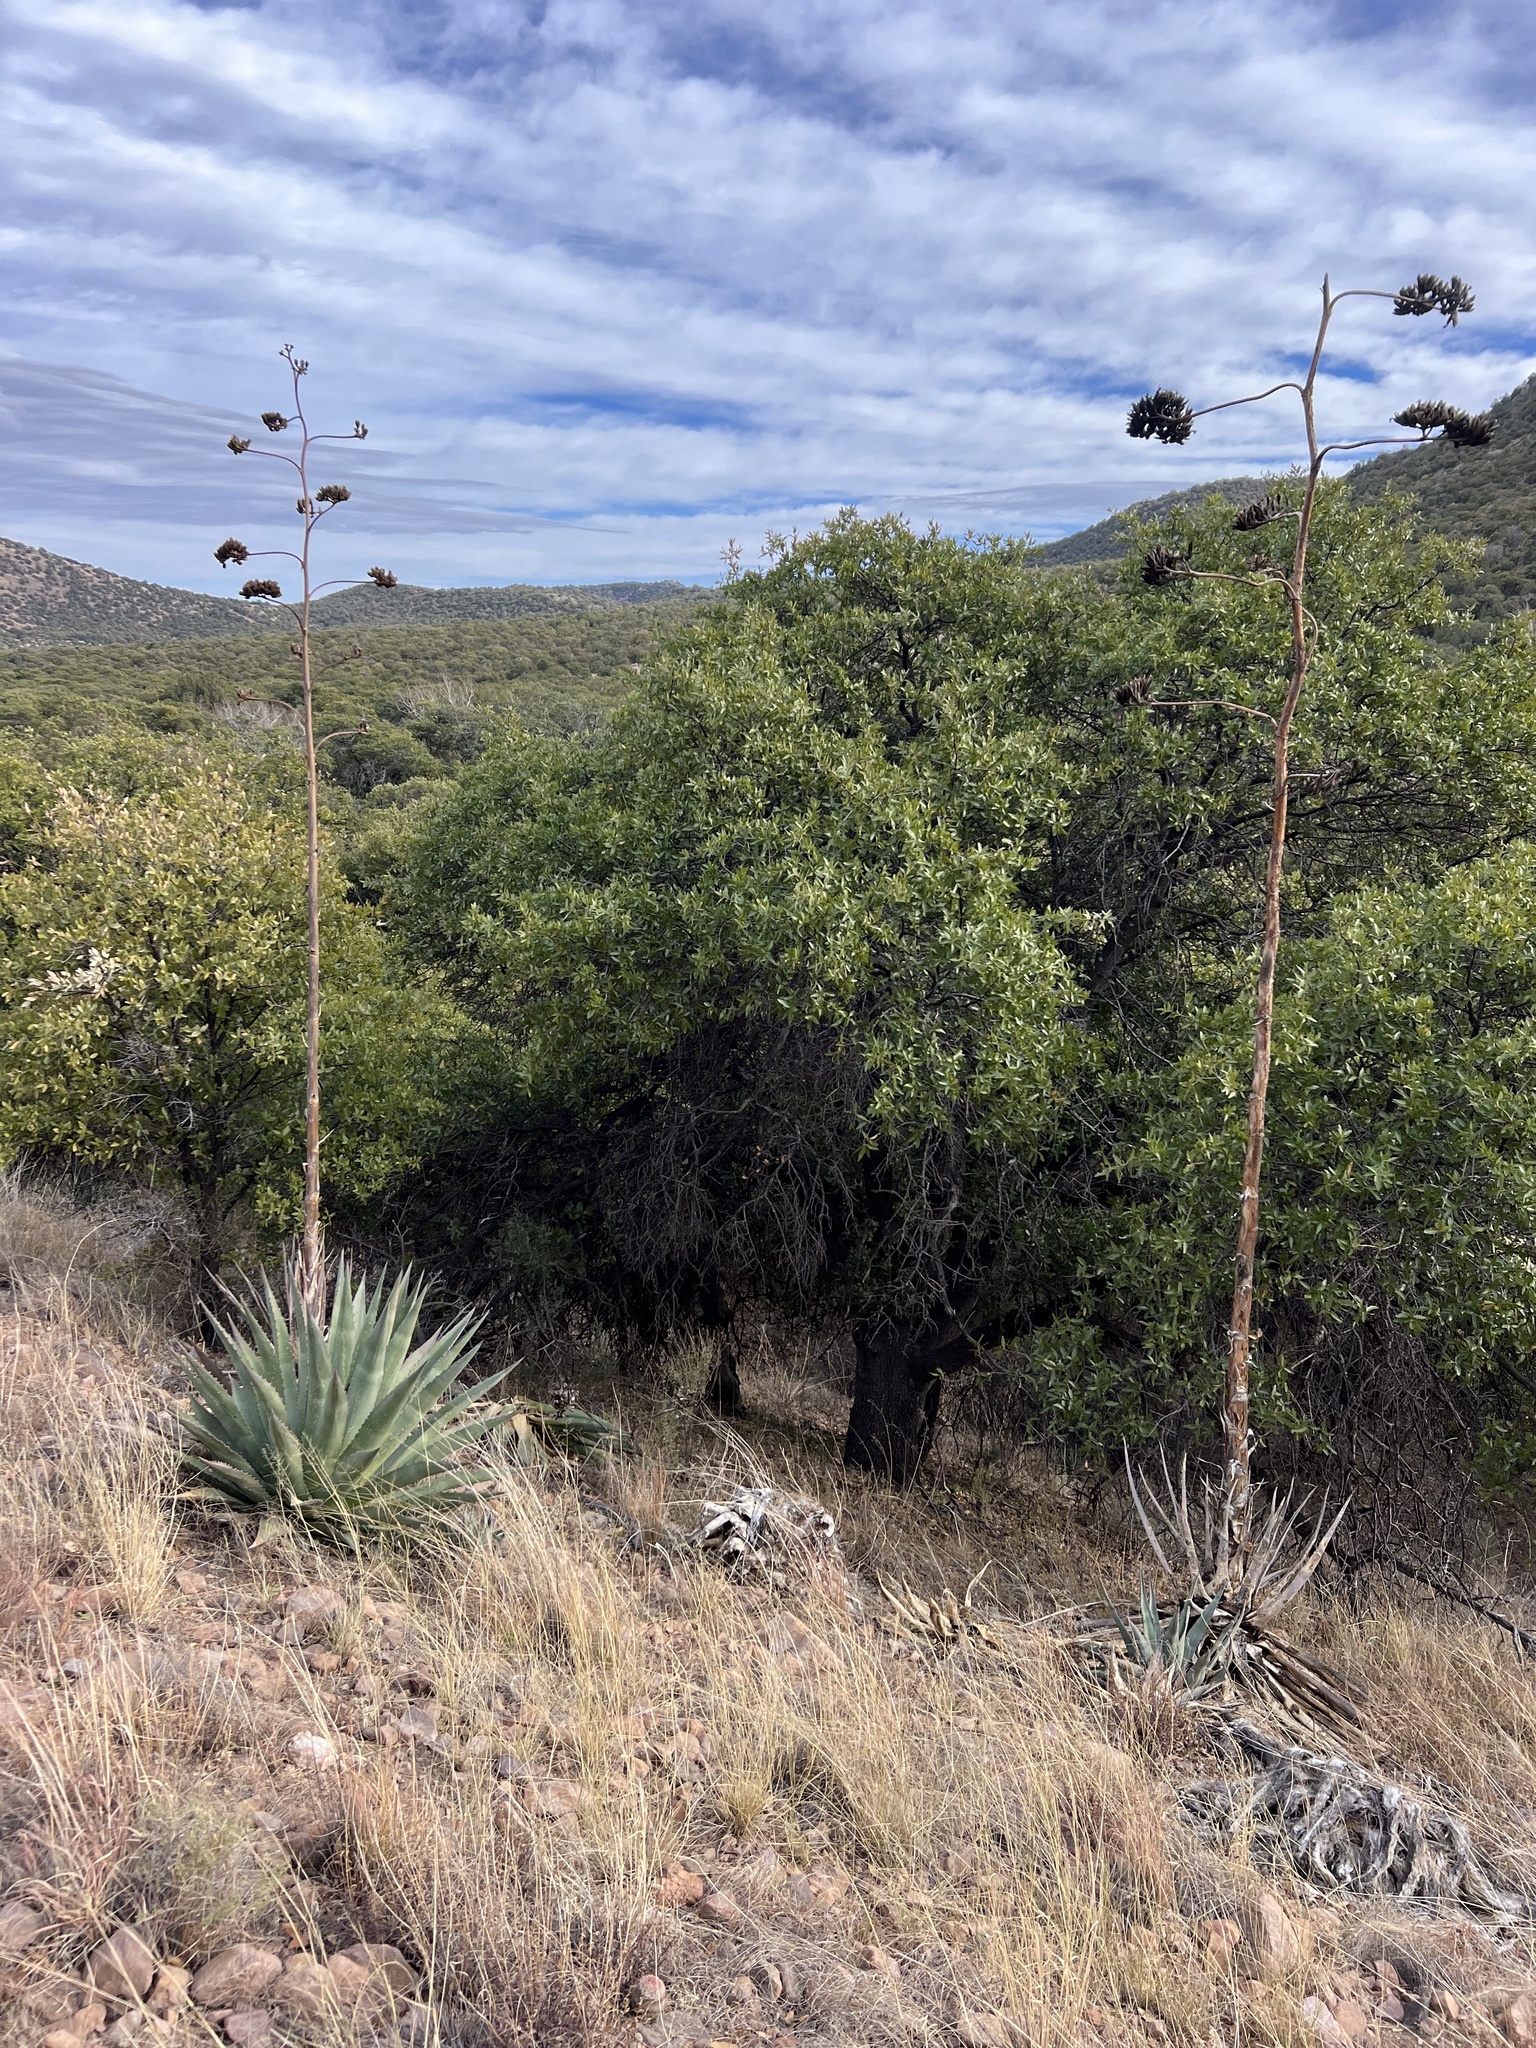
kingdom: Plantae
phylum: Tracheophyta
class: Liliopsida
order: Asparagales
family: Asparagaceae
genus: Agave
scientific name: Agave palmeri
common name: Palmer agave
